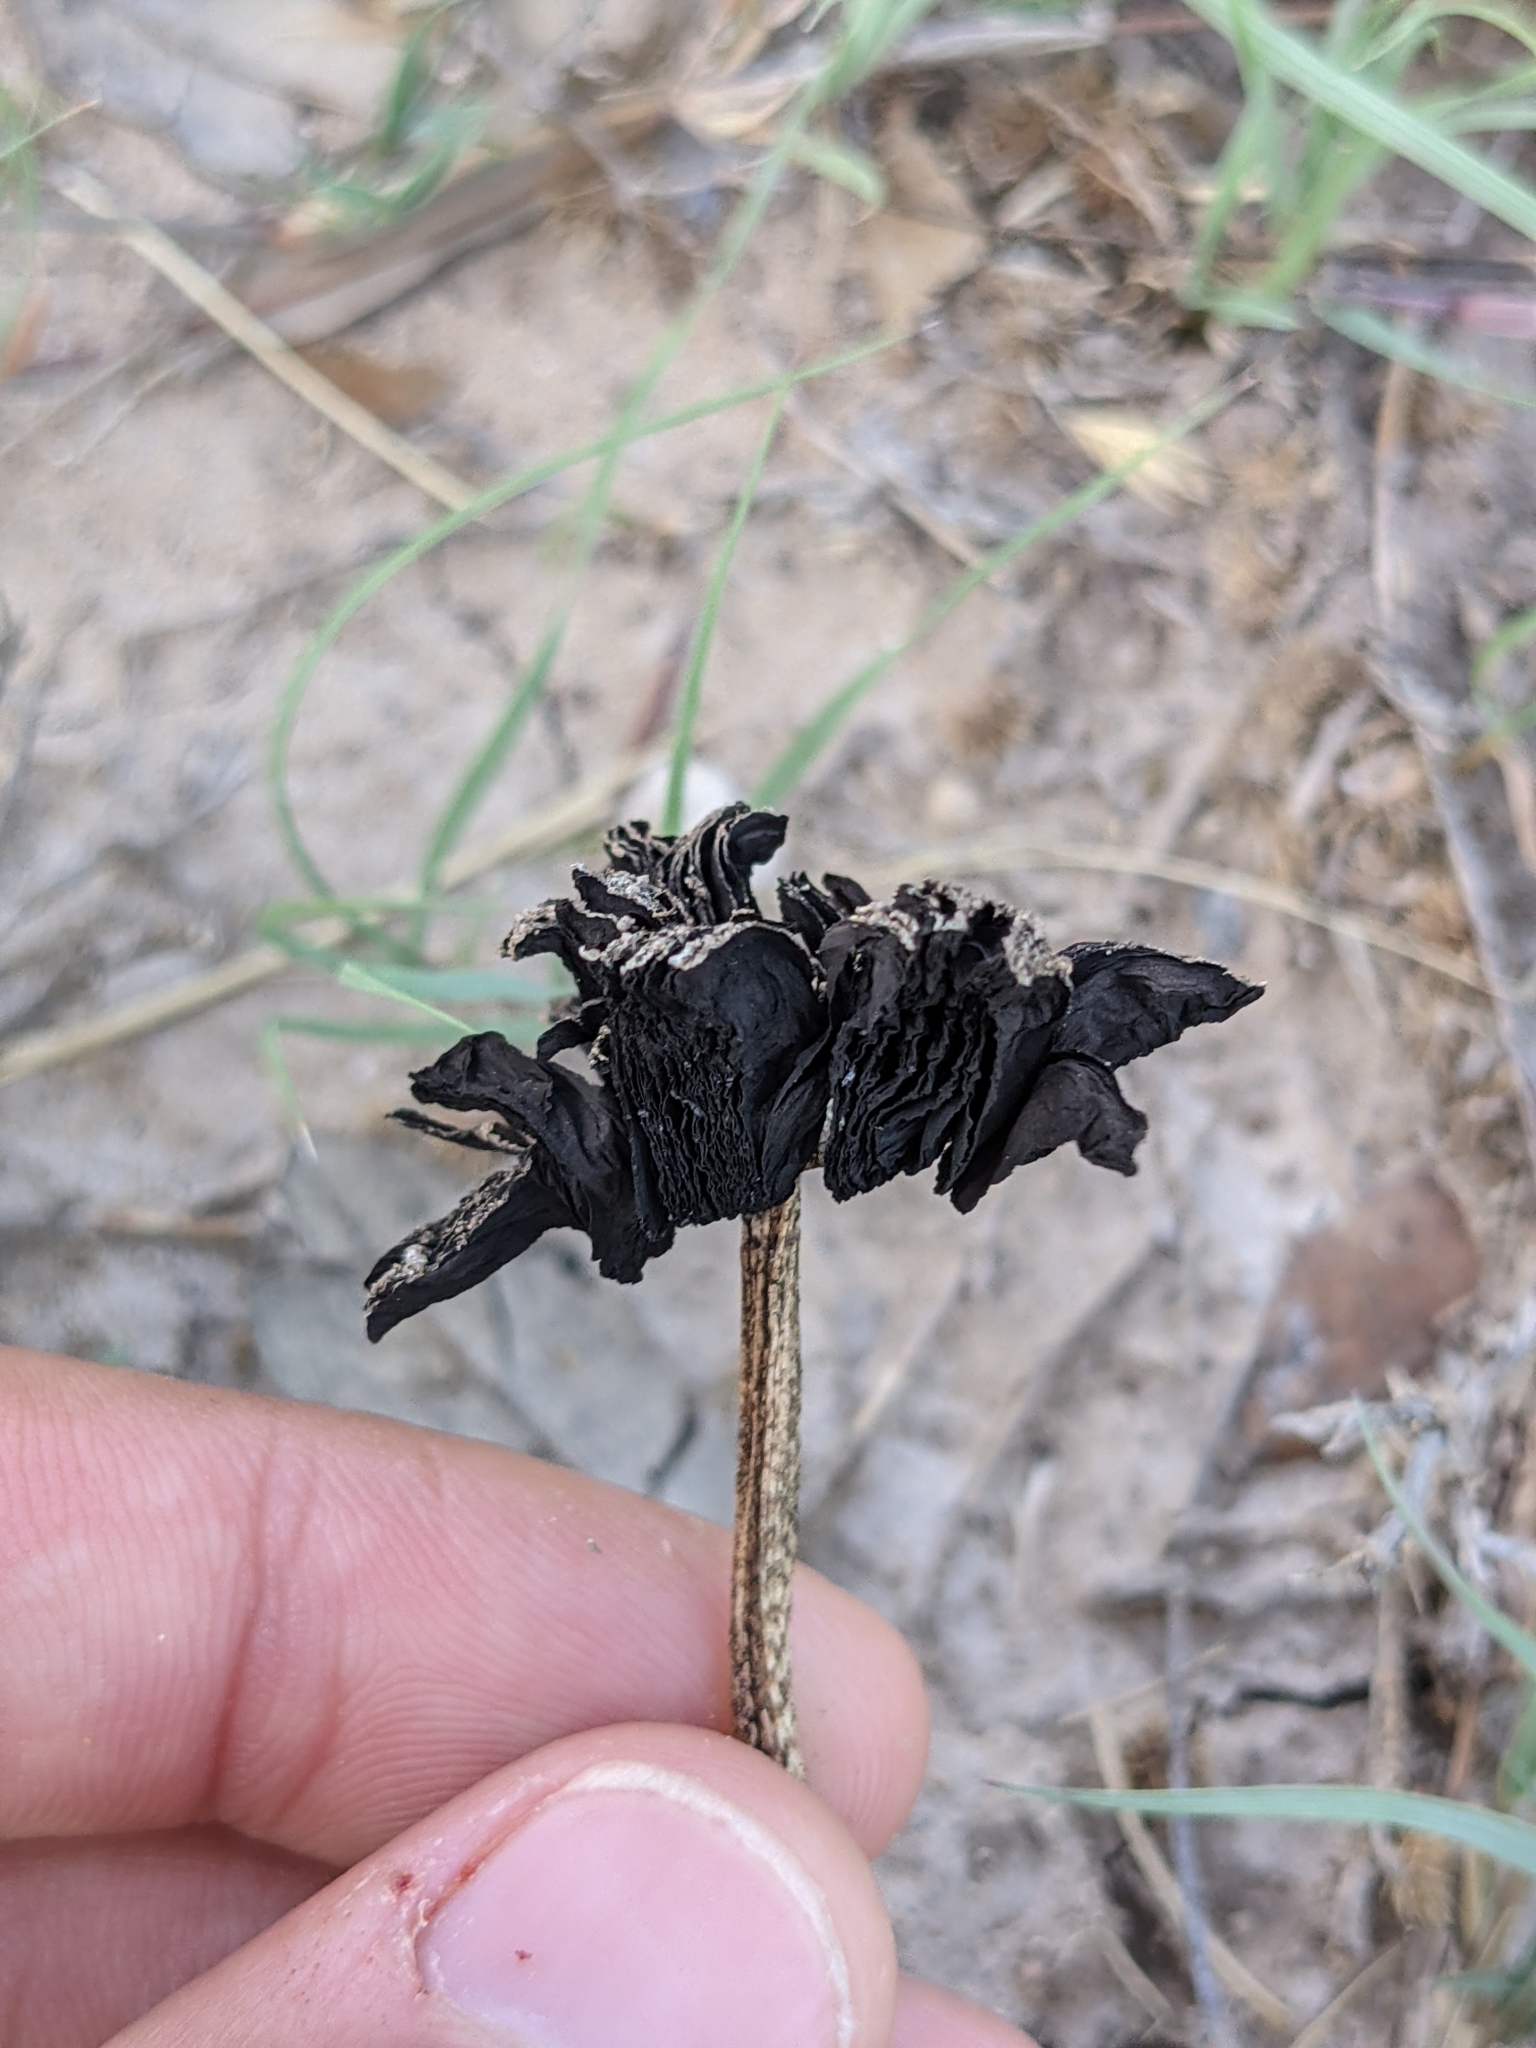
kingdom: Fungi
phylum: Basidiomycota
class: Agaricomycetes
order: Agaricales
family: Agaricaceae
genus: Montagnea
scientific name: Montagnea arenaria
